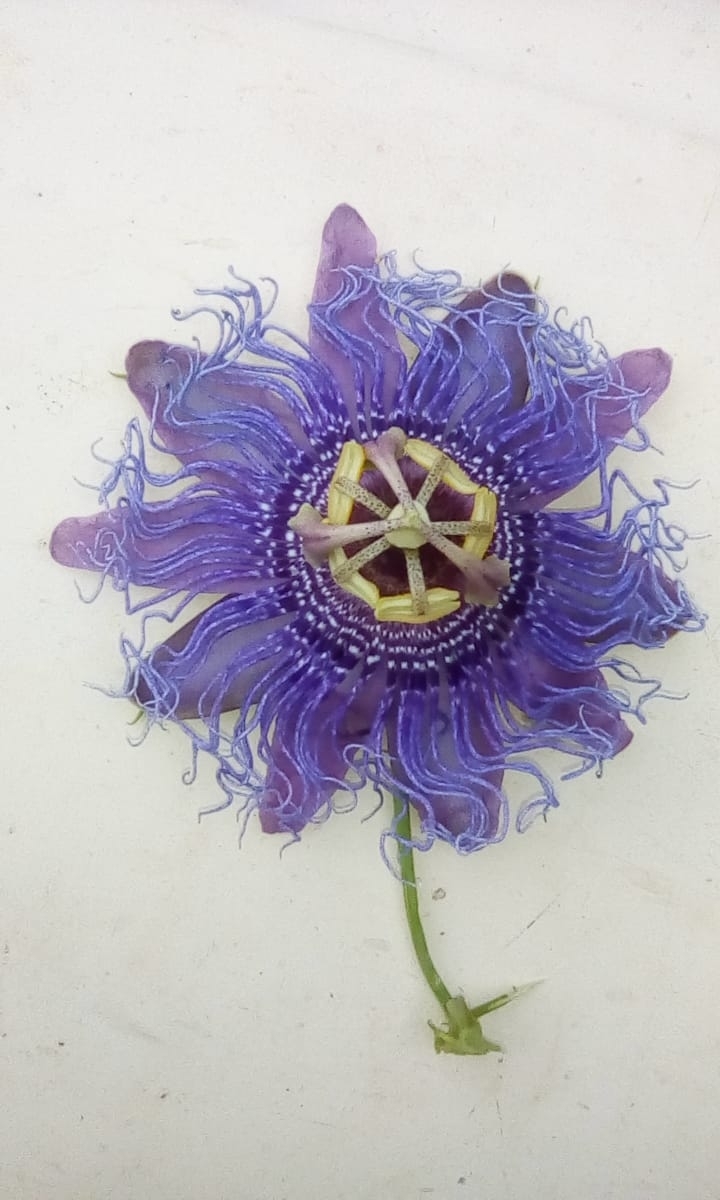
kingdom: Plantae
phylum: Tracheophyta
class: Magnoliopsida
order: Malpighiales
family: Passifloraceae
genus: Passiflora
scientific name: Passiflora
